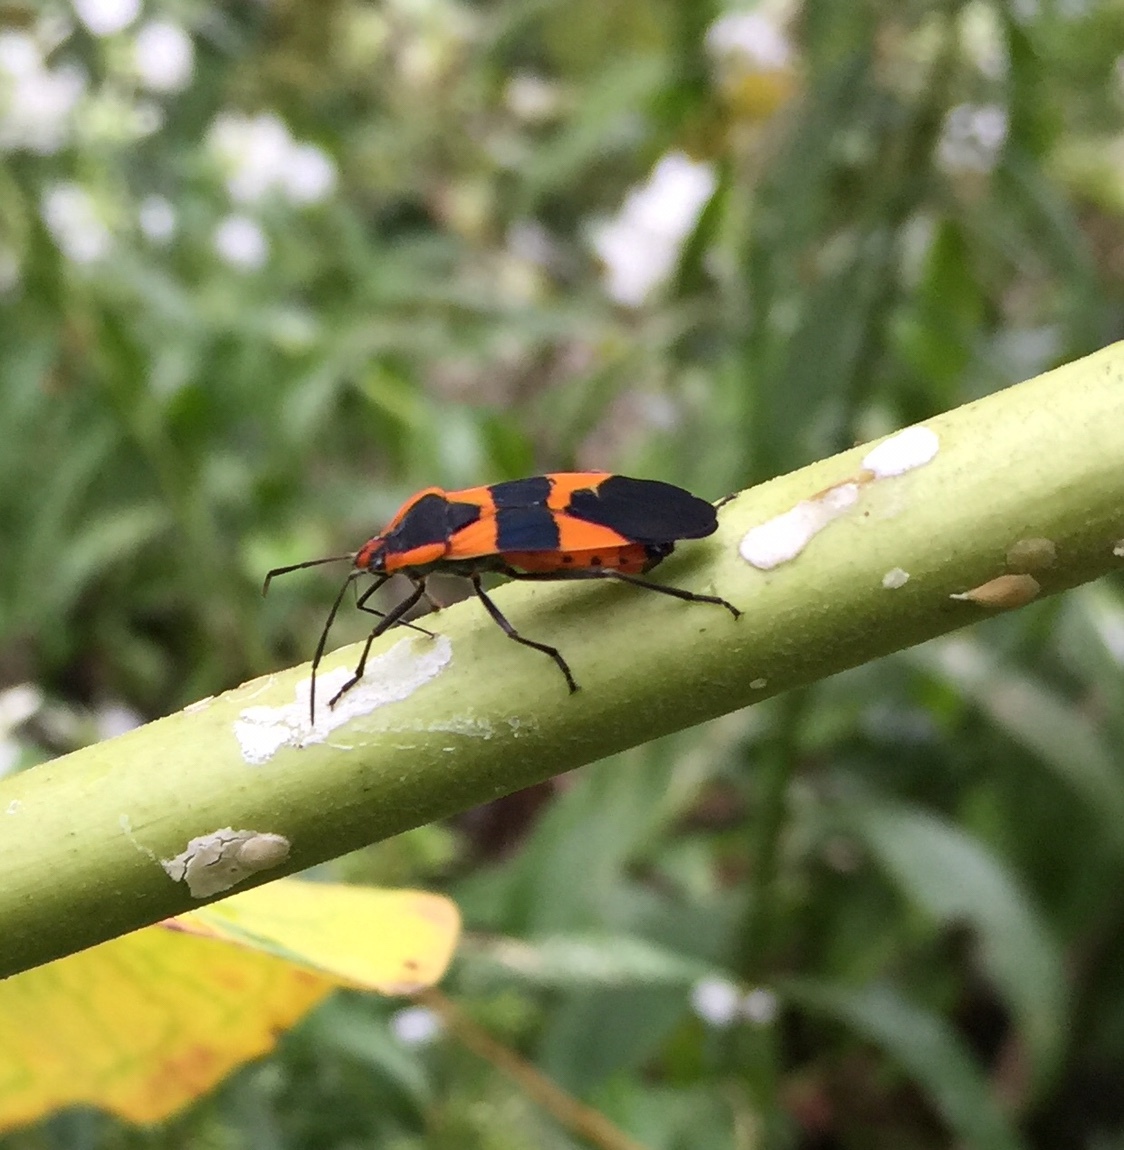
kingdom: Animalia
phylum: Arthropoda
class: Insecta
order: Hemiptera
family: Lygaeidae
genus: Oncopeltus
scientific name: Oncopeltus fasciatus
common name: Large milkweed bug
